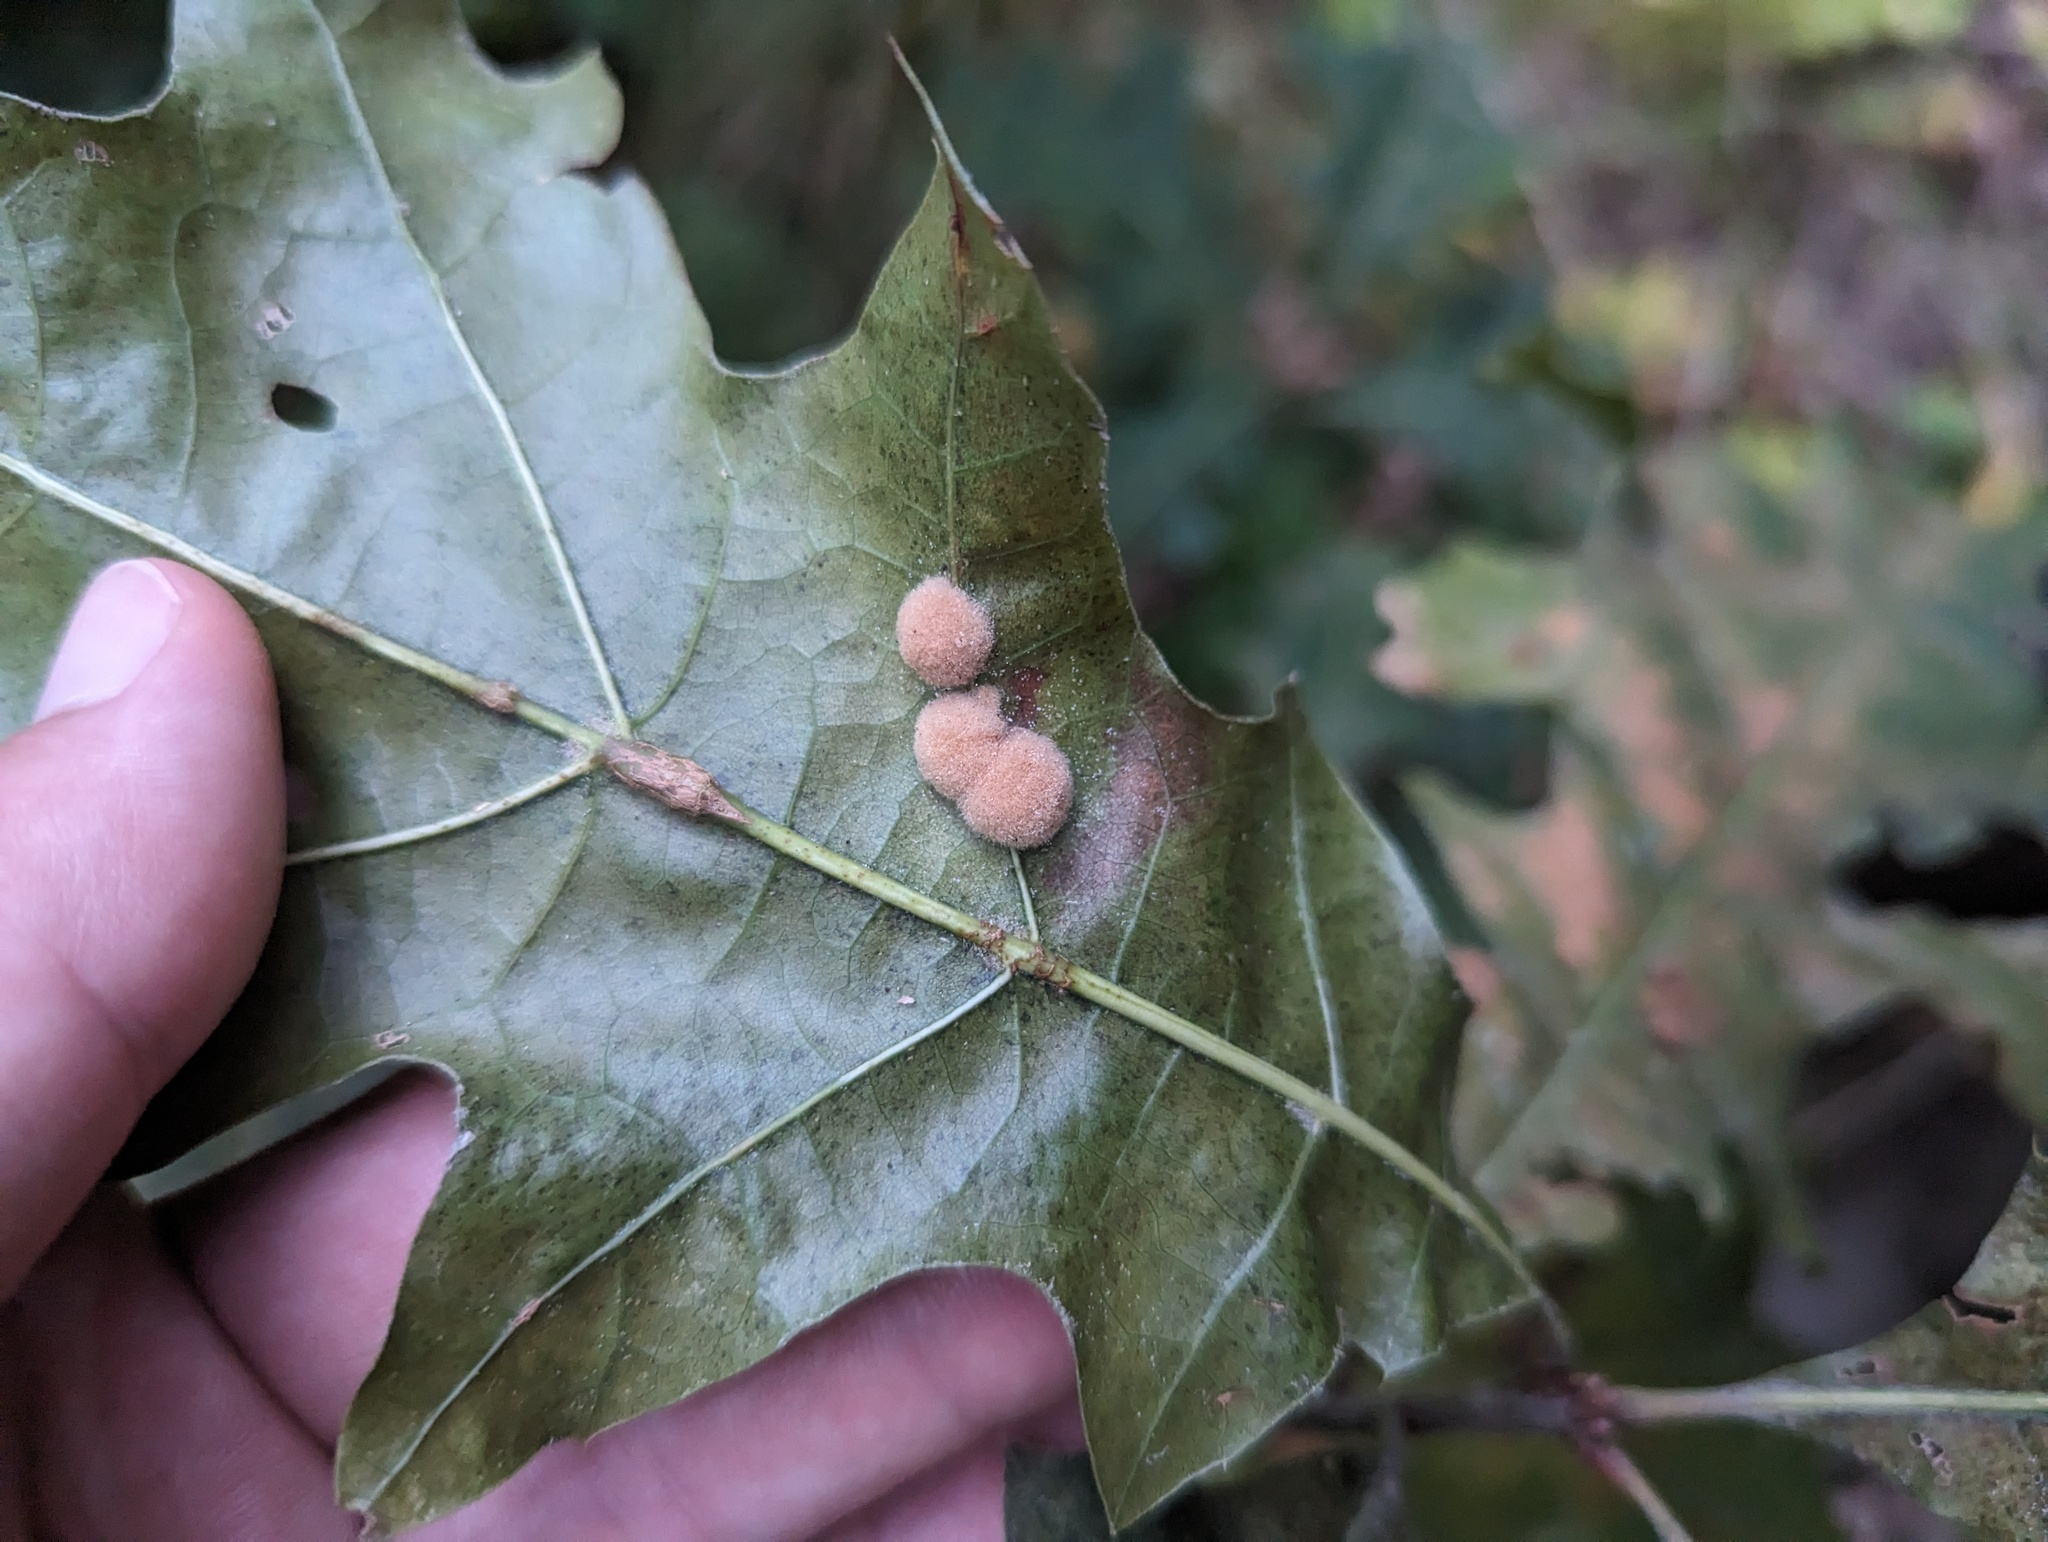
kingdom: Animalia
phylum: Arthropoda
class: Insecta
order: Hymenoptera
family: Cynipidae
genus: Callirhytis
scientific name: Callirhytis
